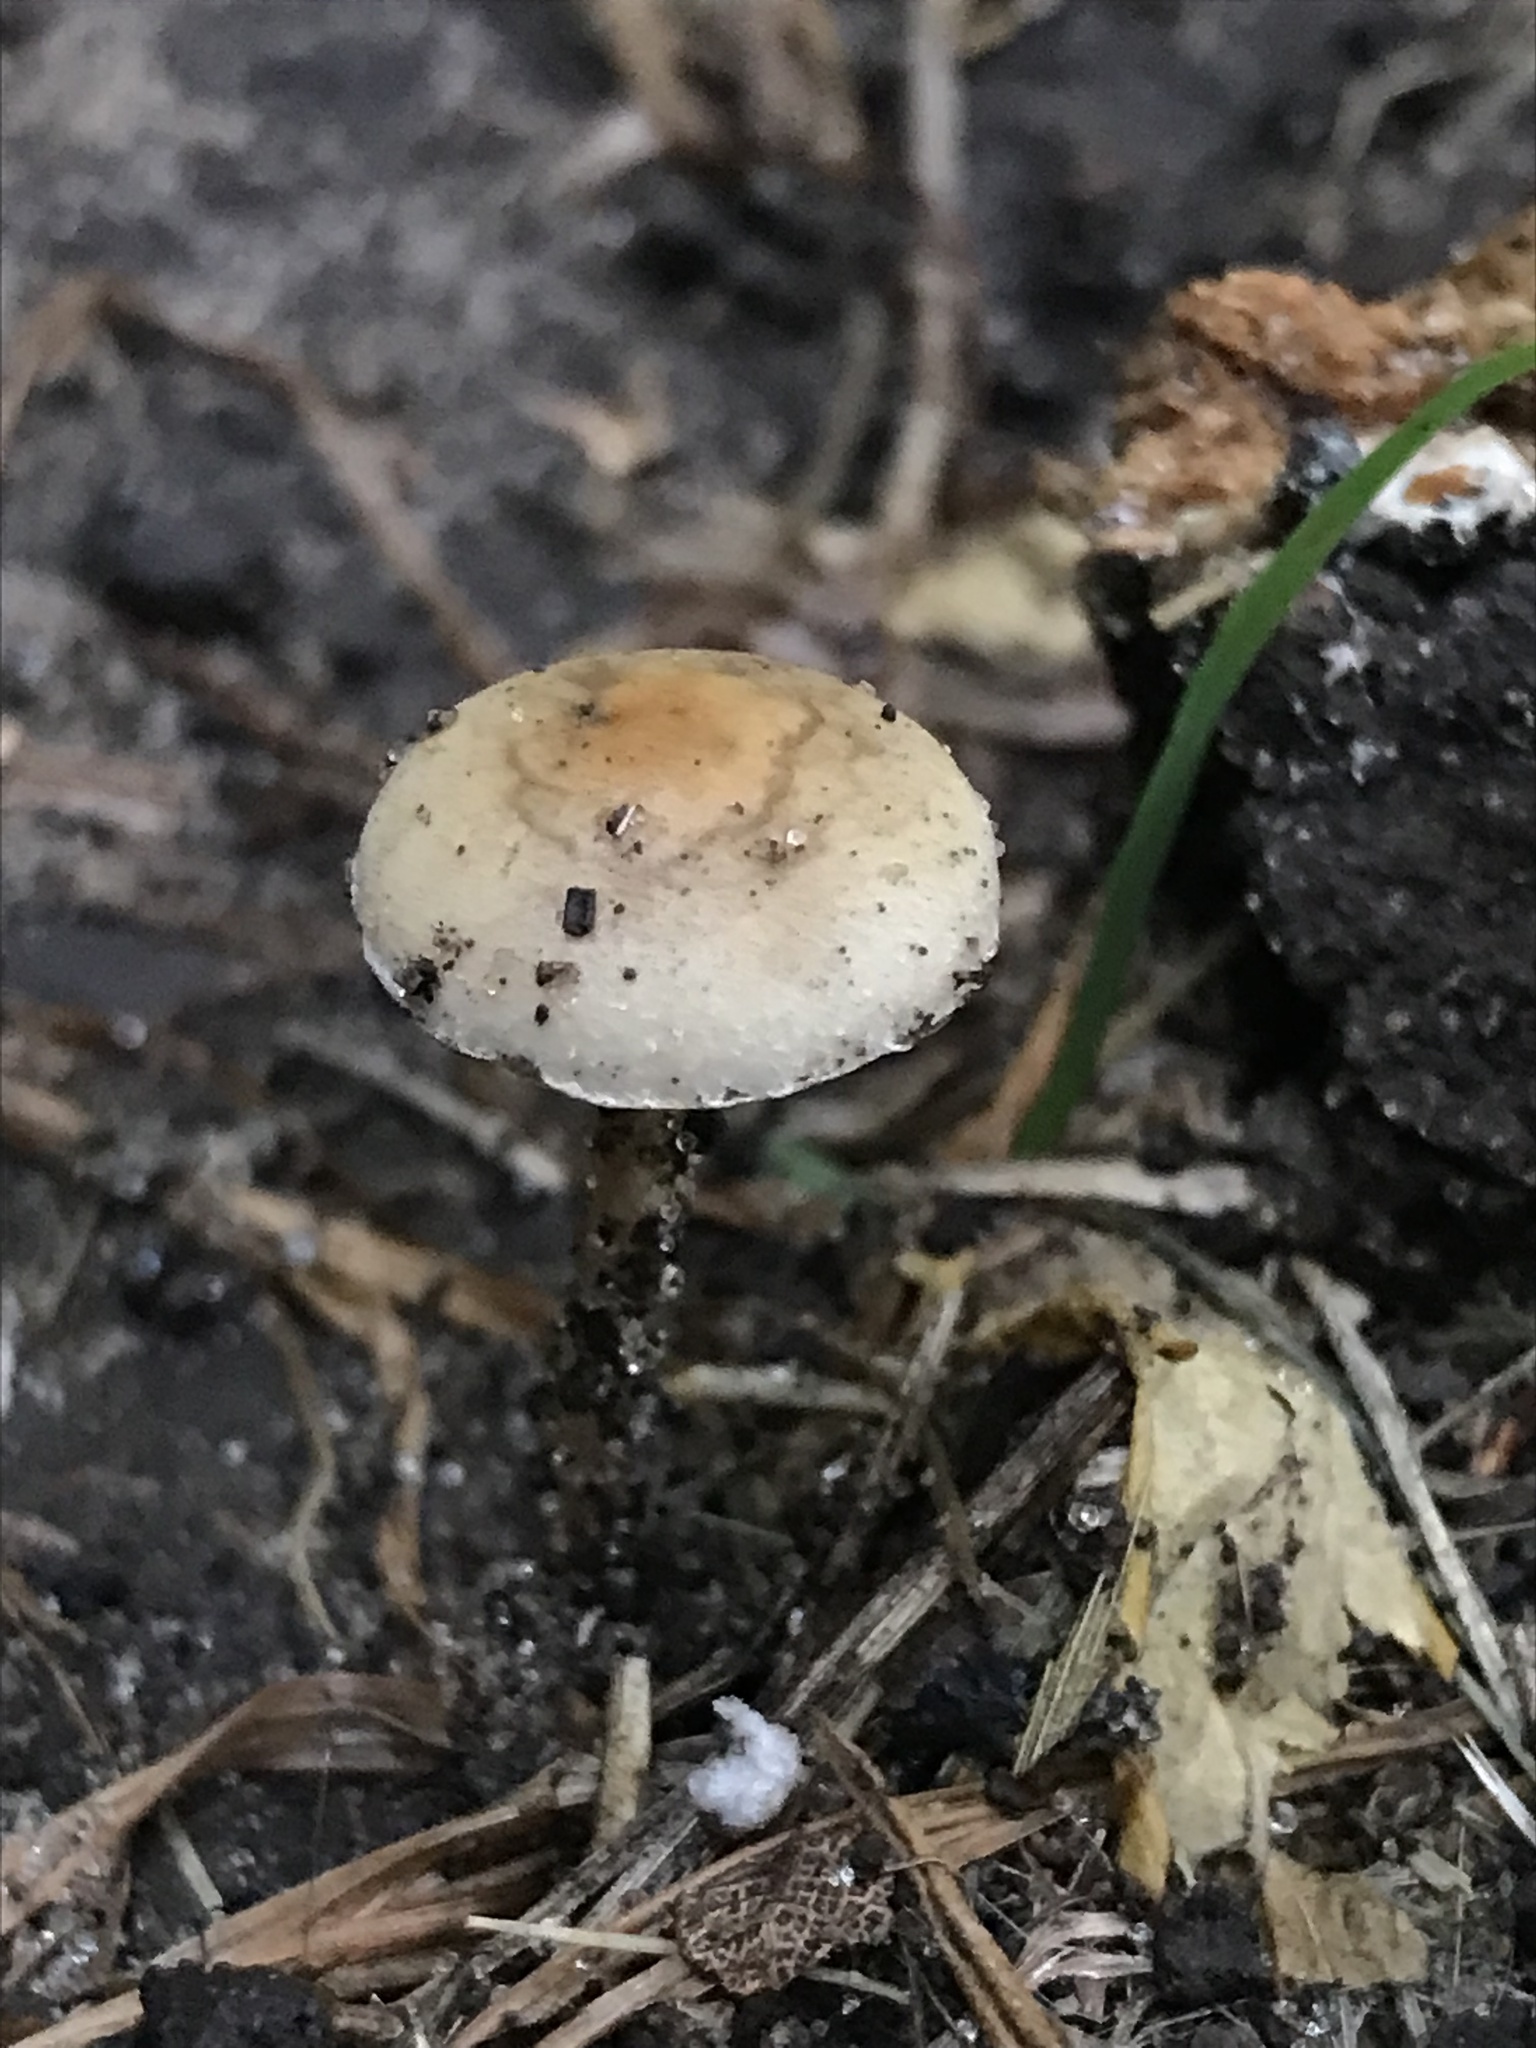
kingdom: Fungi
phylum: Basidiomycota
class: Agaricomycetes
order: Agaricales
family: Strophariaceae
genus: Agrocybe
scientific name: Agrocybe pediades
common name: Common fieldcap
